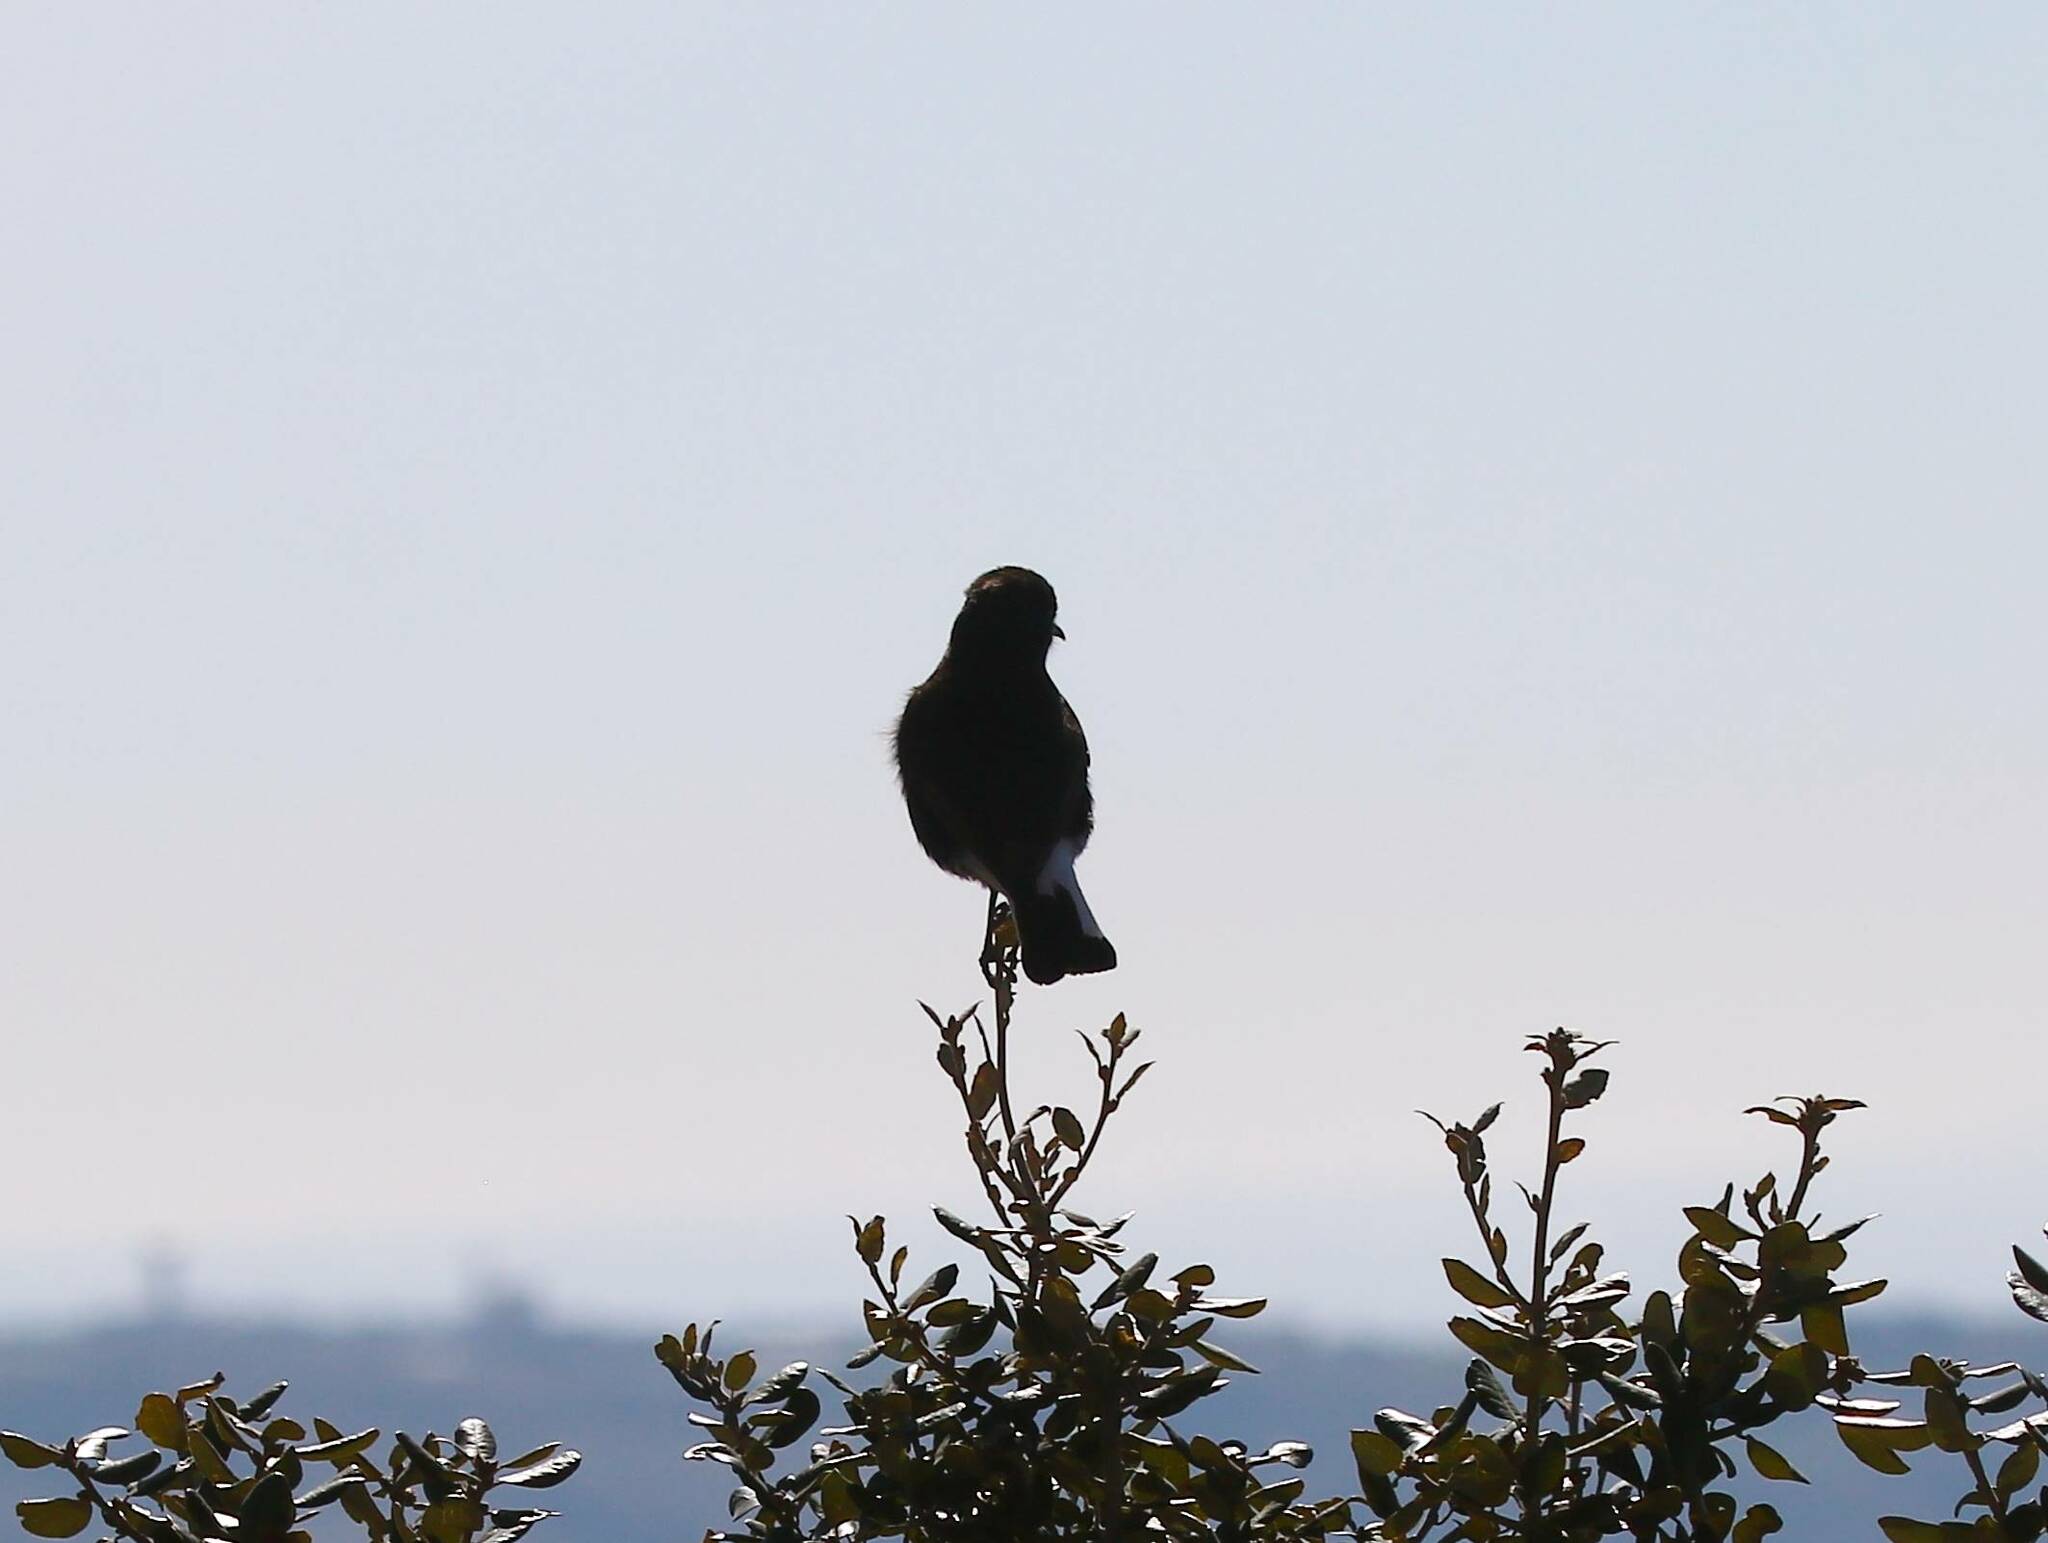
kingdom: Animalia
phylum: Chordata
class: Aves
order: Passeriformes
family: Muscicapidae
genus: Oenanthe
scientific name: Oenanthe leucura
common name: Black wheatear
